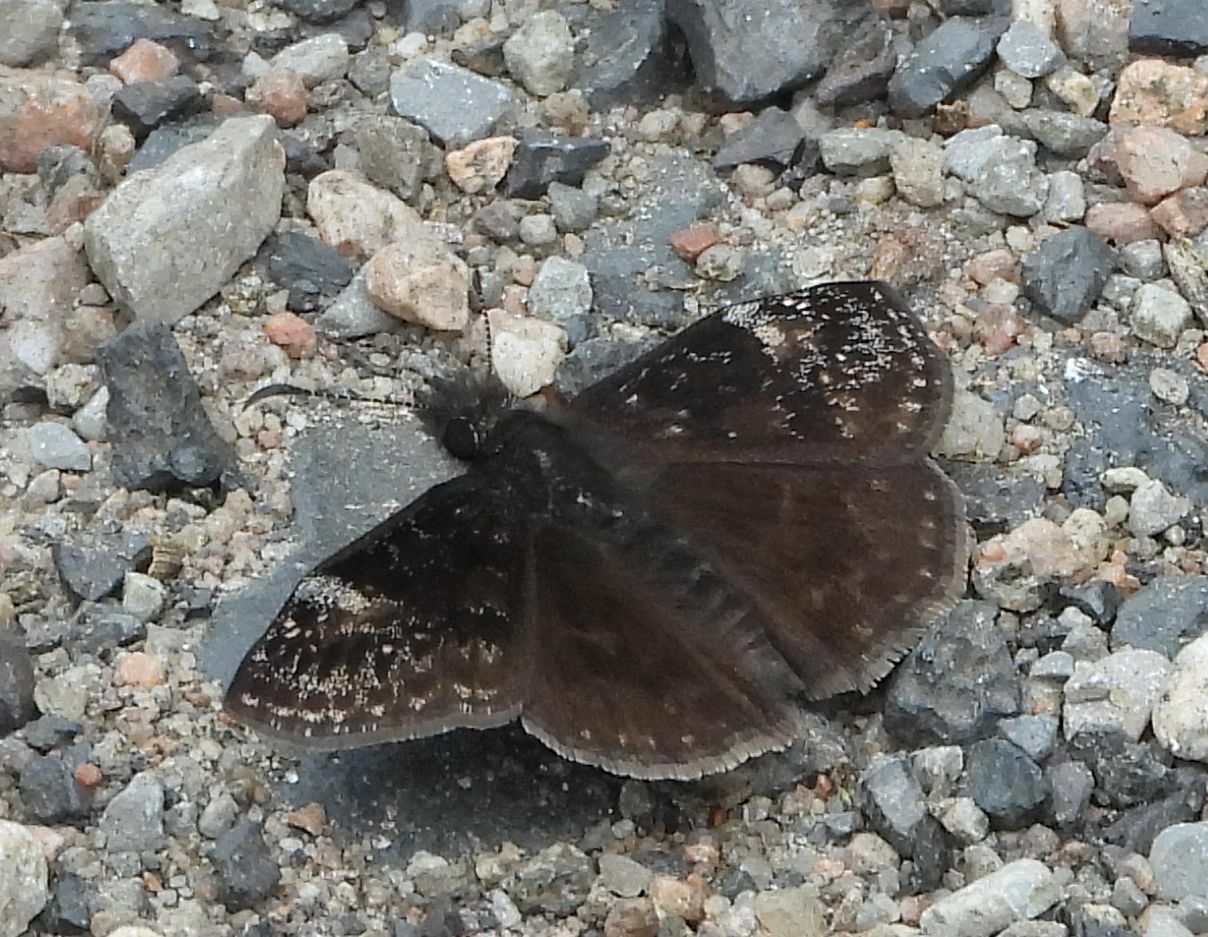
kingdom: Animalia
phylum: Arthropoda
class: Insecta
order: Lepidoptera
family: Hesperiidae
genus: Erynnis
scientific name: Erynnis lucilius
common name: Columbine duskywing
